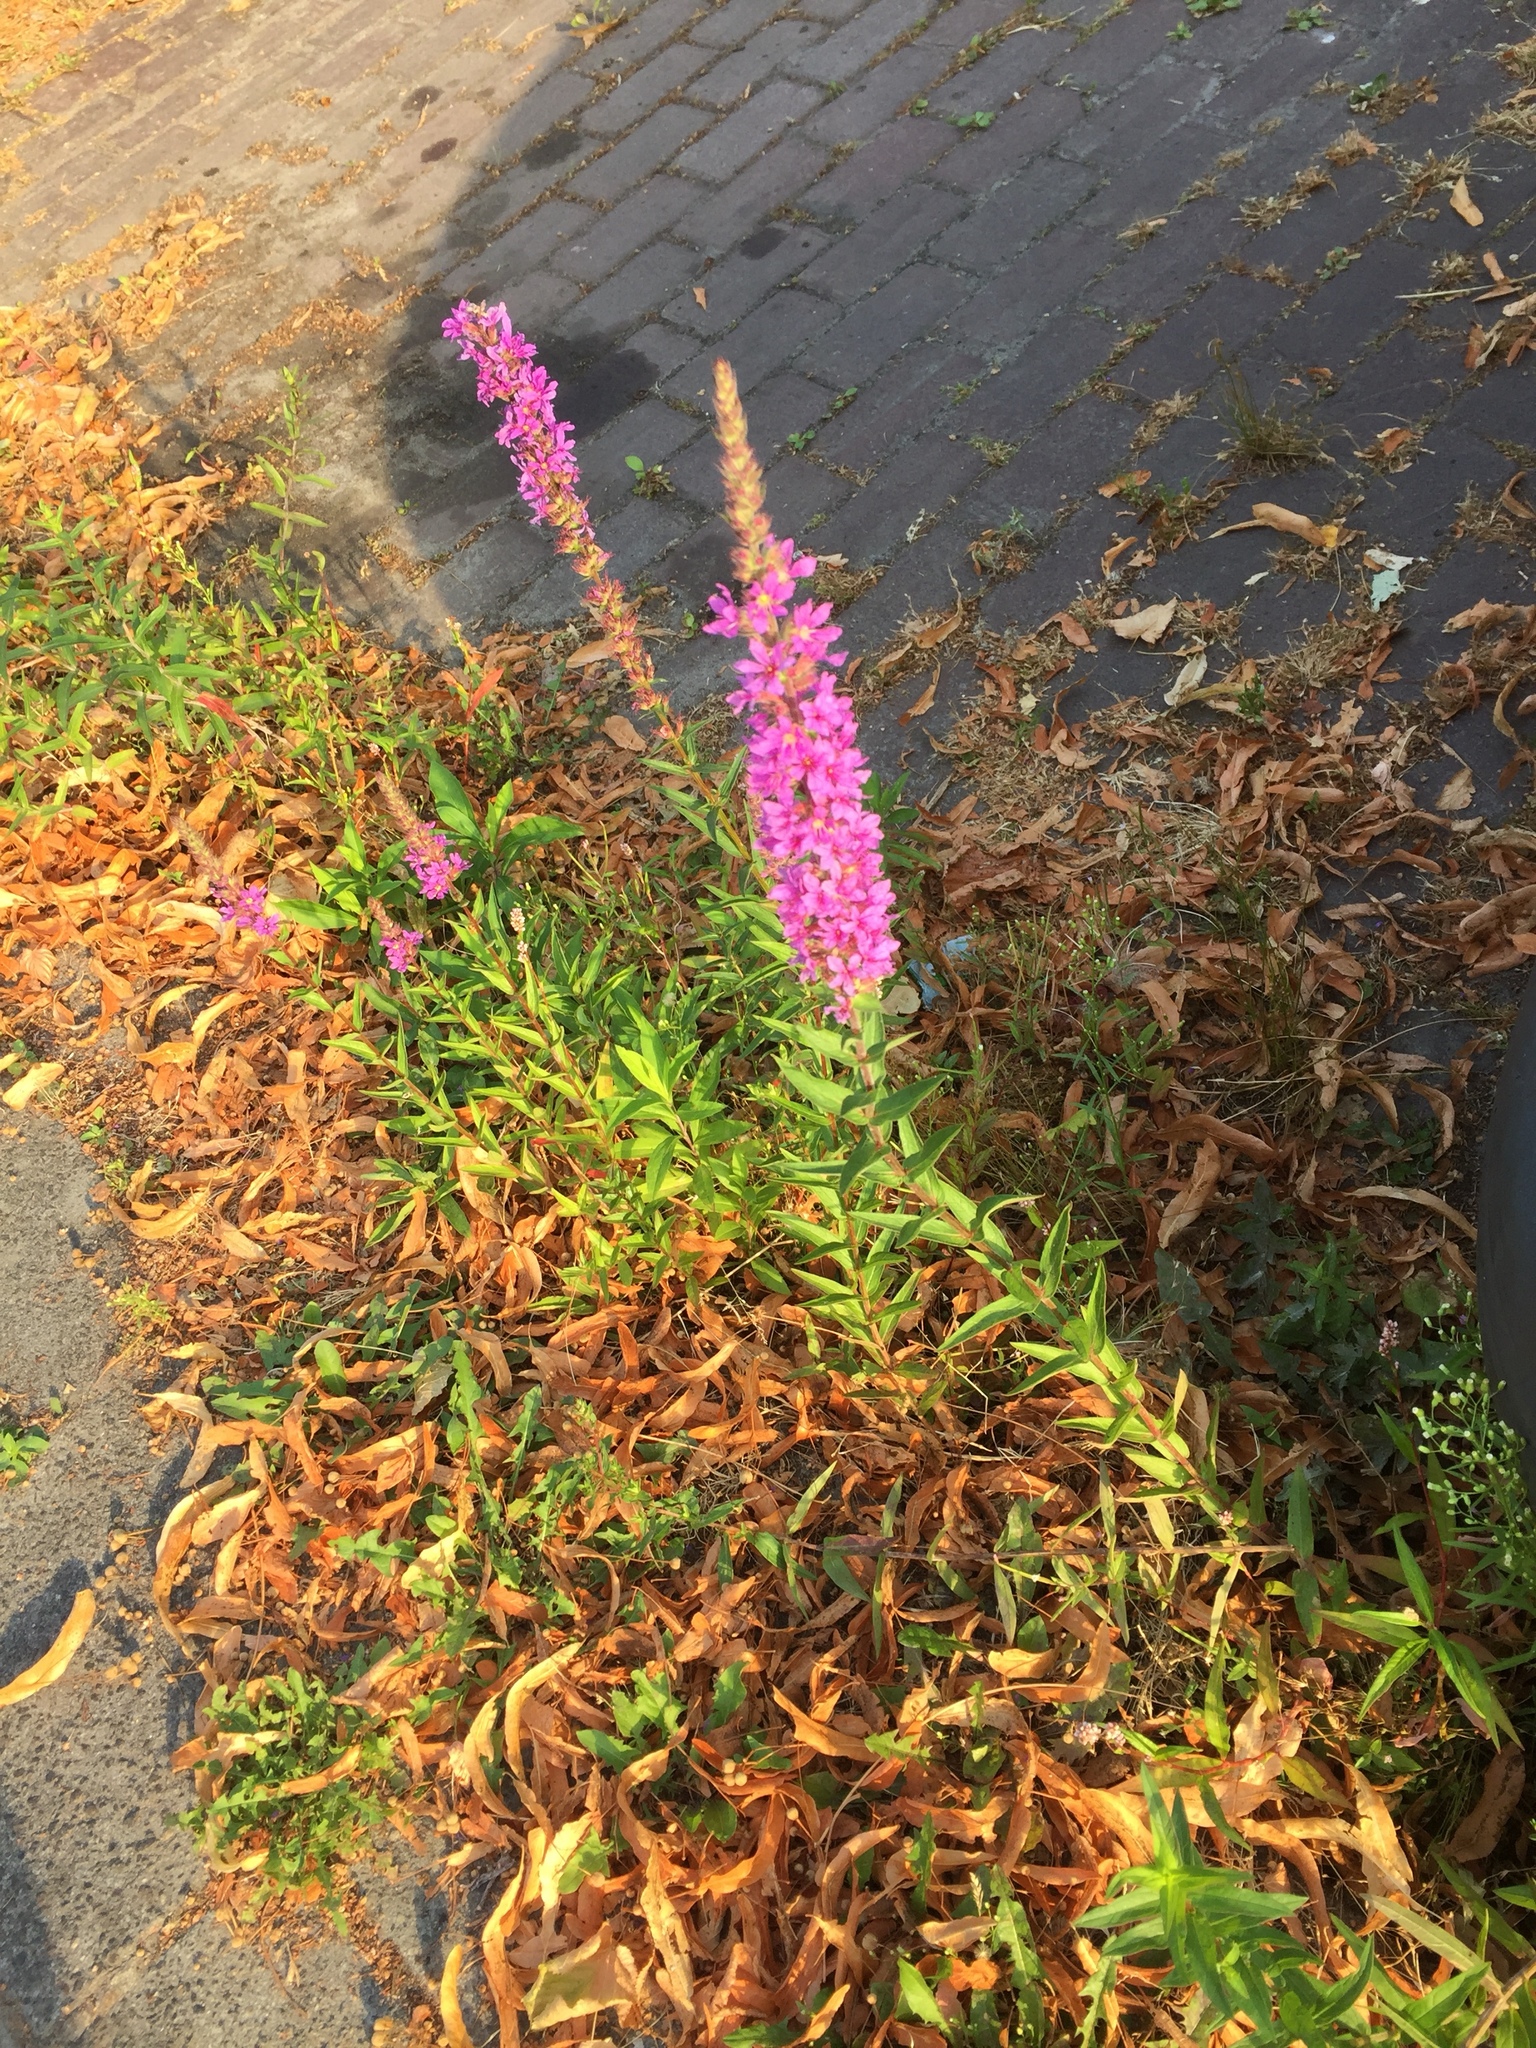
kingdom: Plantae
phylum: Tracheophyta
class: Magnoliopsida
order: Myrtales
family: Lythraceae
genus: Lythrum
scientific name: Lythrum salicaria
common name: Purple loosestrife
